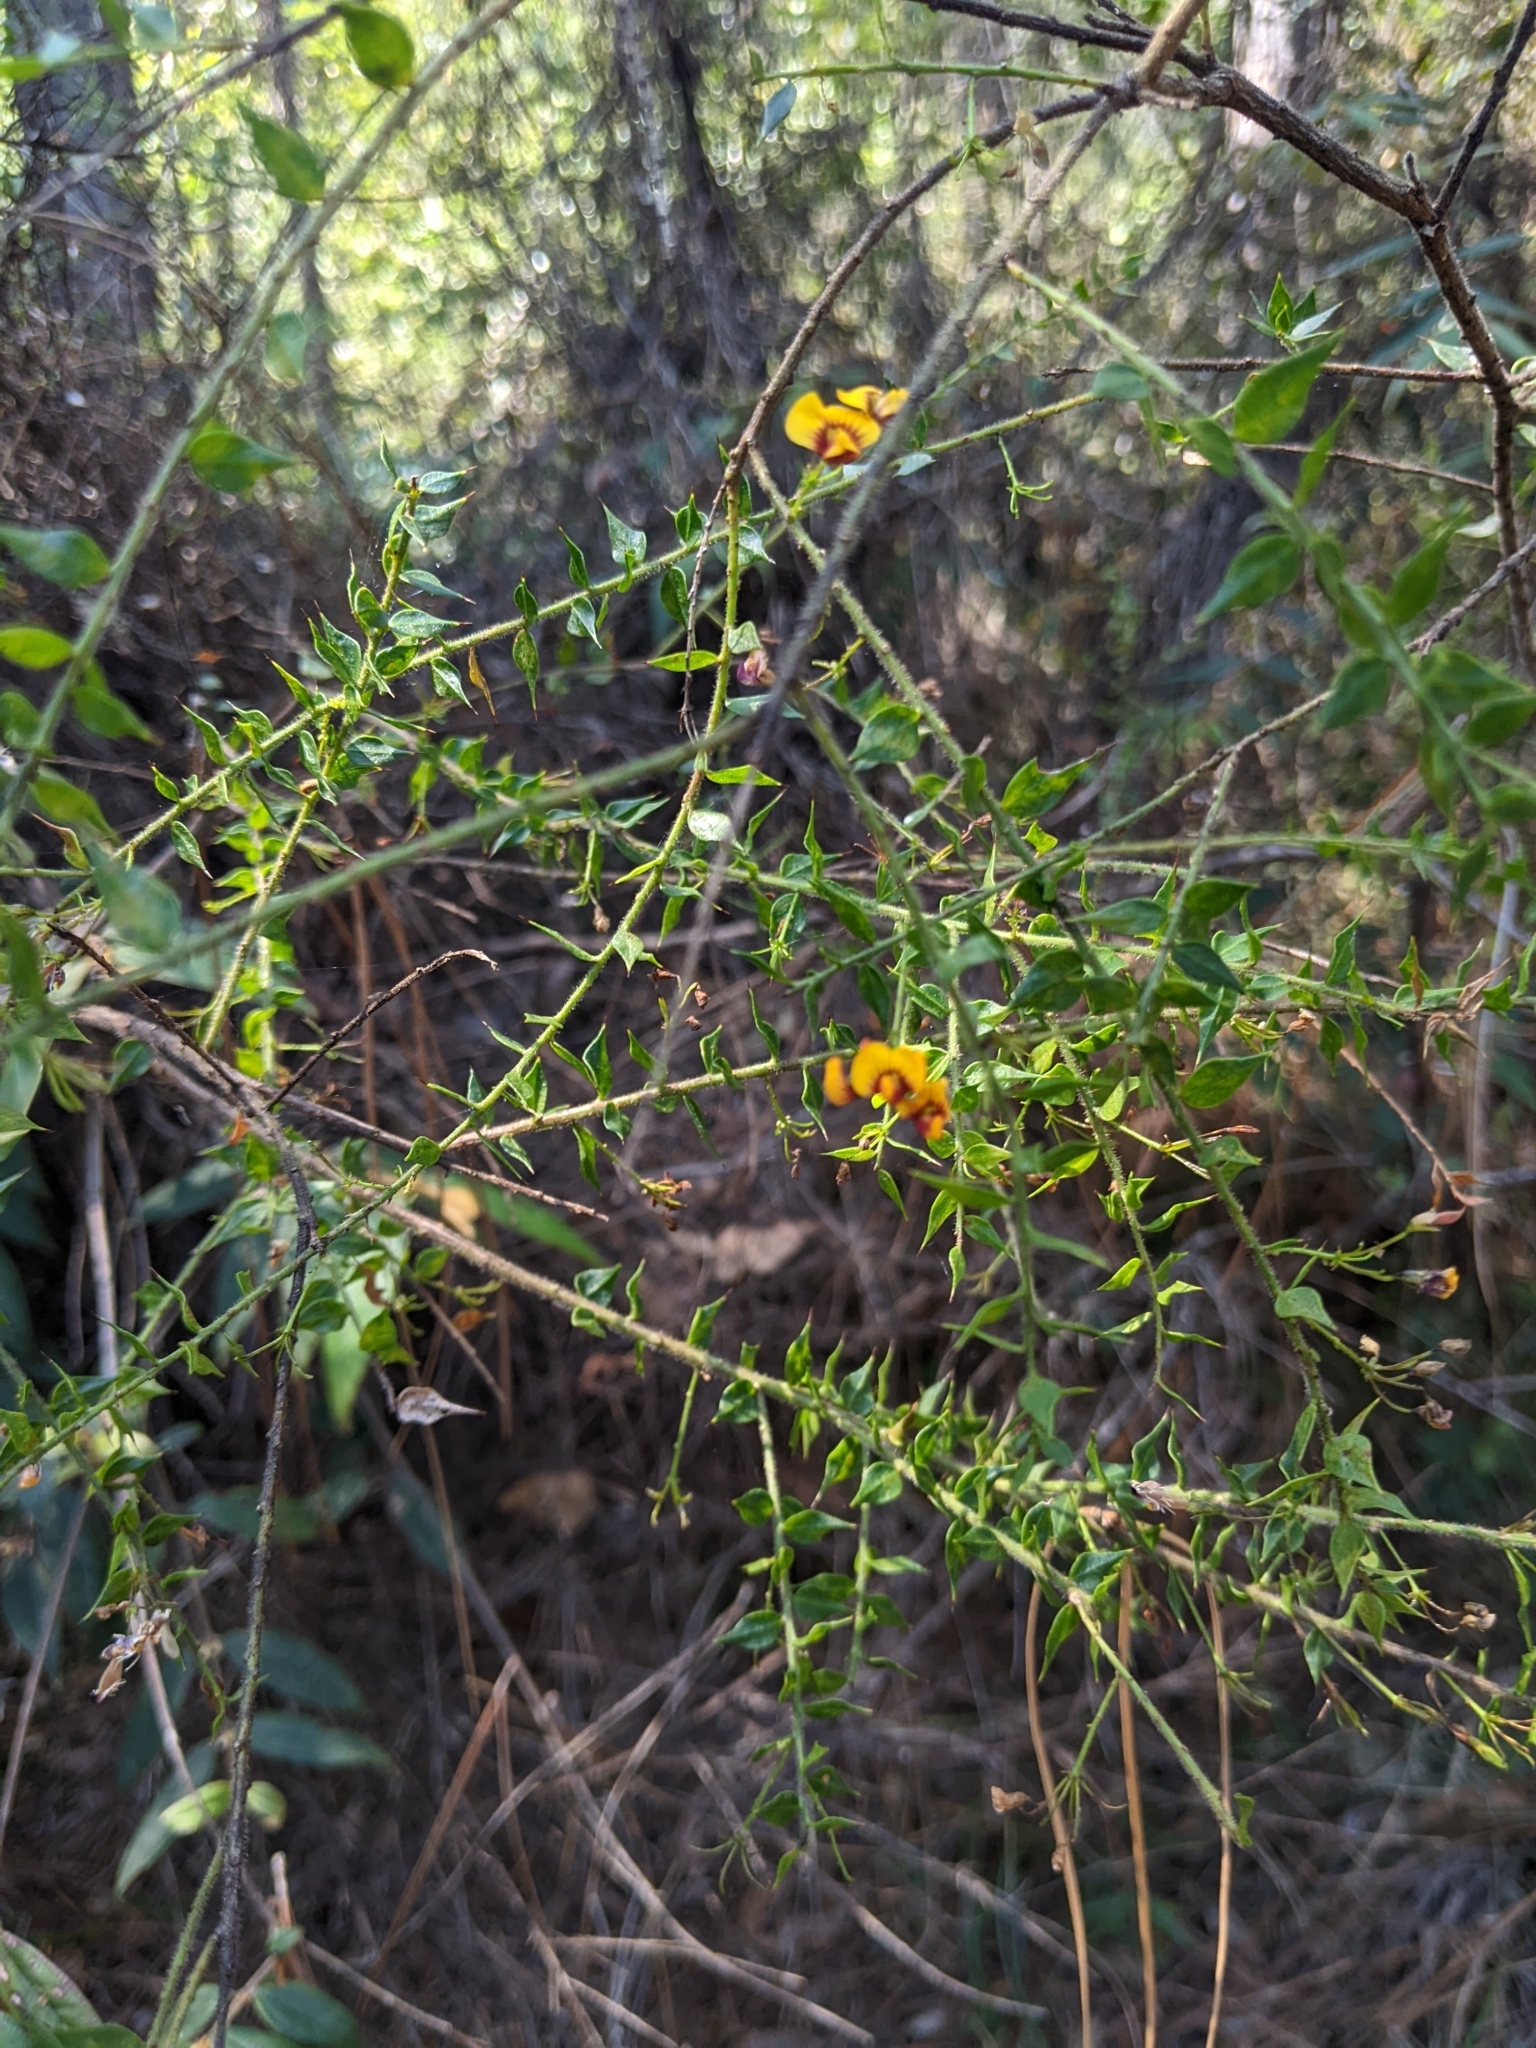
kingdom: Plantae
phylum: Tracheophyta
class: Magnoliopsida
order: Fabales
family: Fabaceae
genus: Daviesia
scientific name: Daviesia umbellulata
